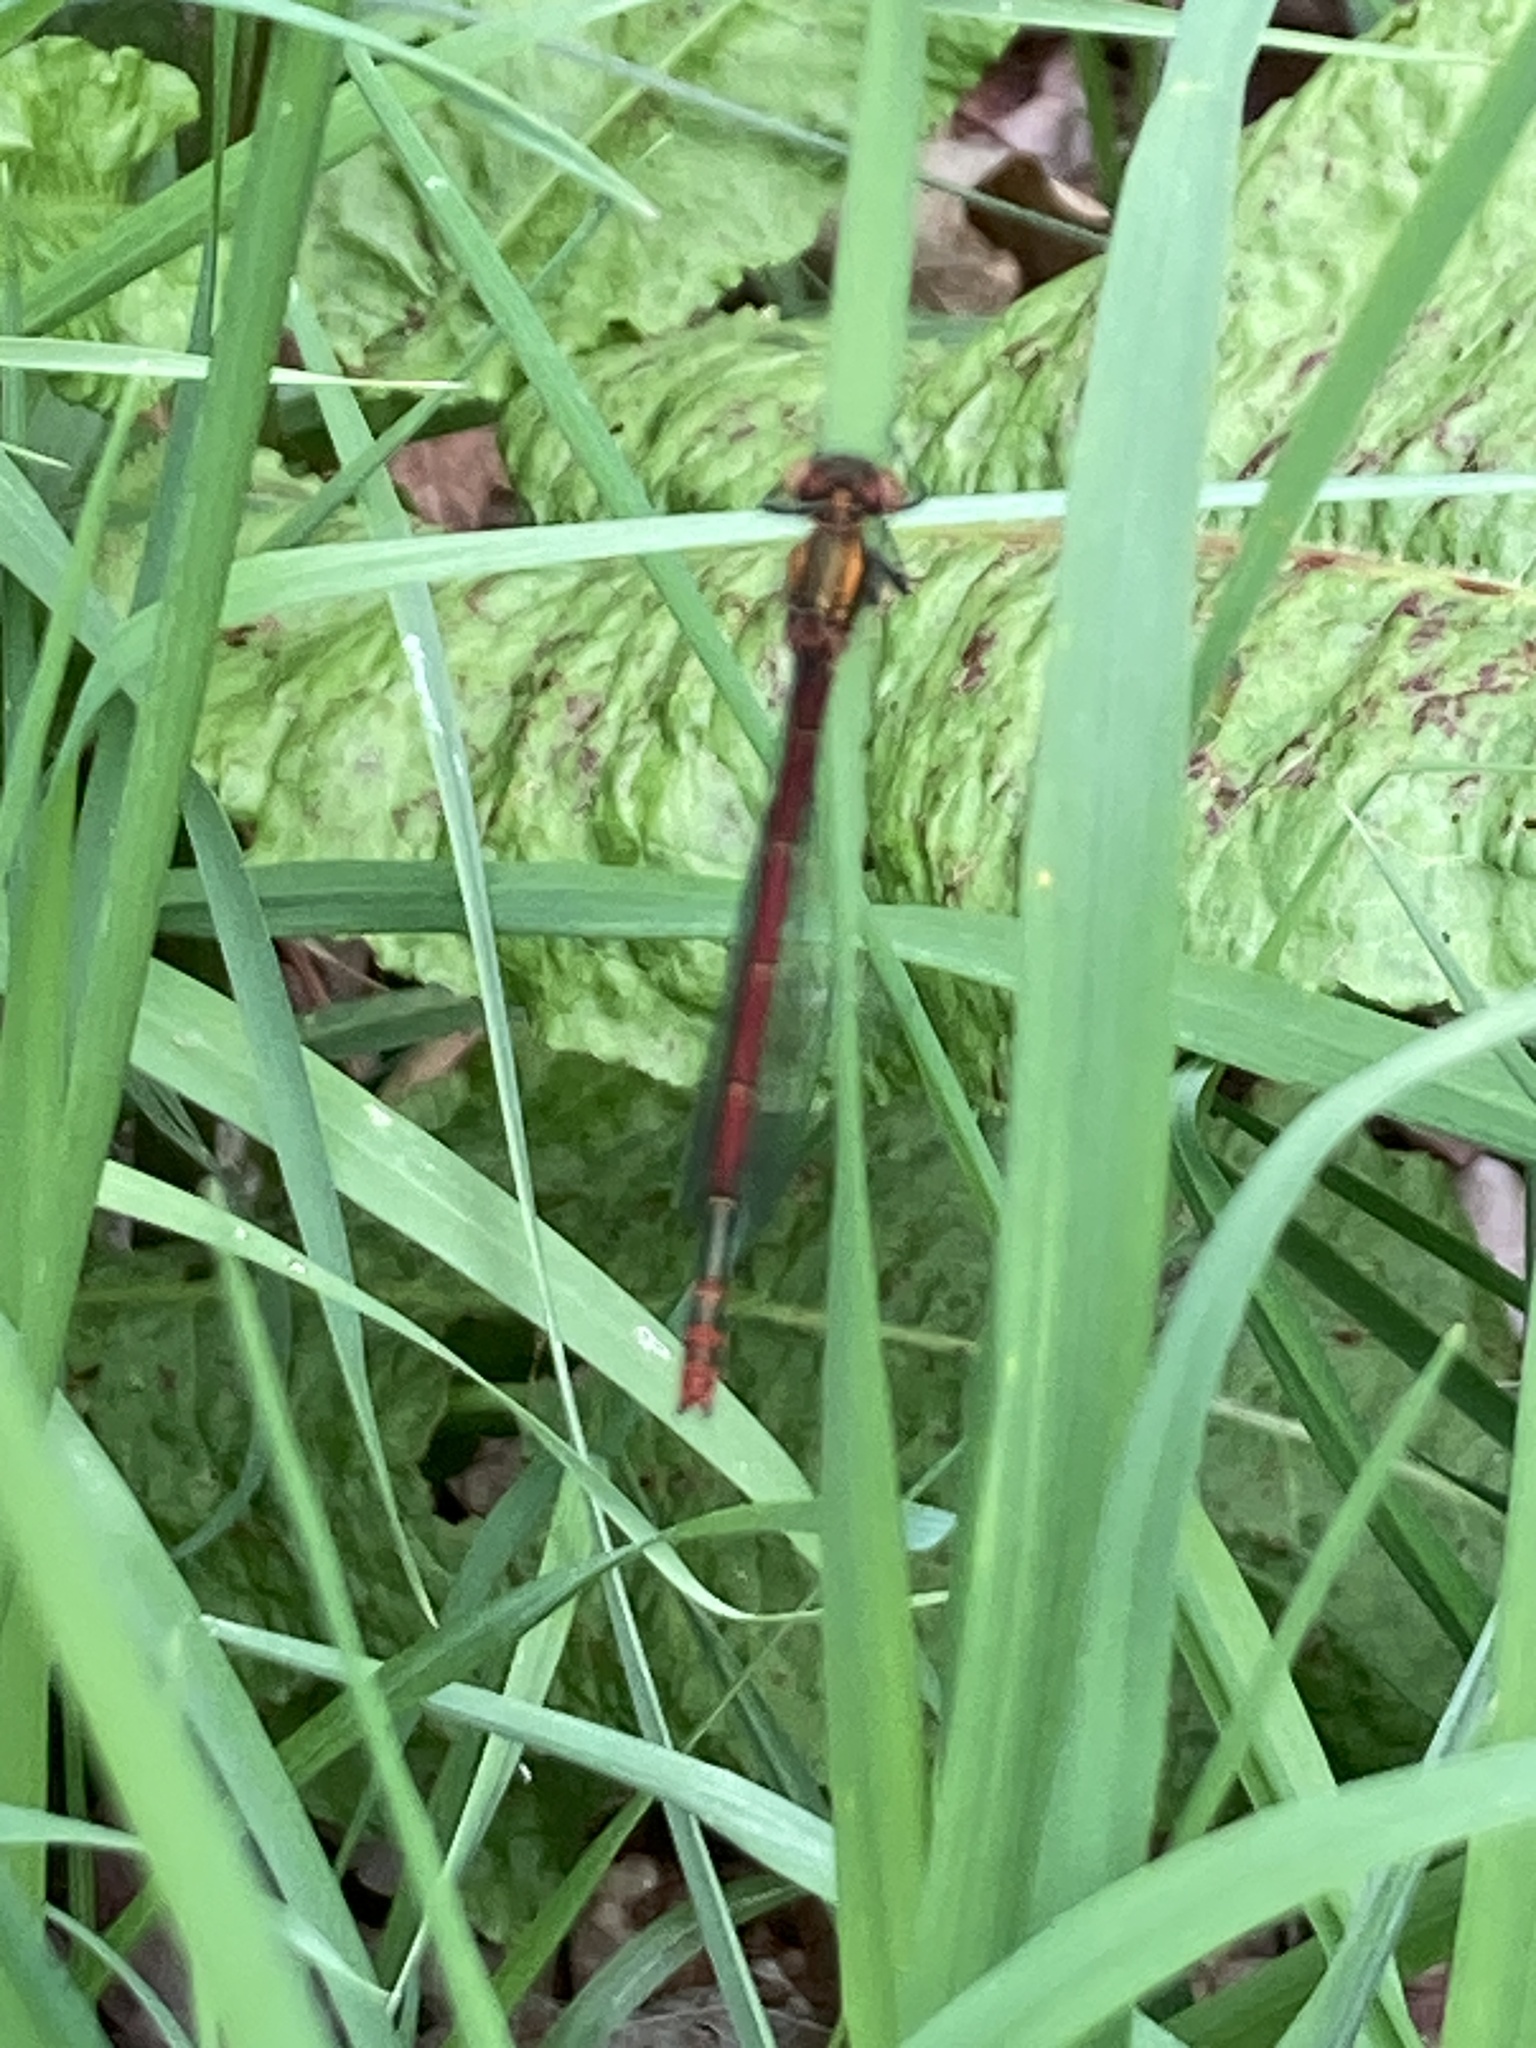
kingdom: Animalia
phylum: Arthropoda
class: Insecta
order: Odonata
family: Coenagrionidae
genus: Pyrrhosoma
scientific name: Pyrrhosoma nymphula
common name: Large red damsel
